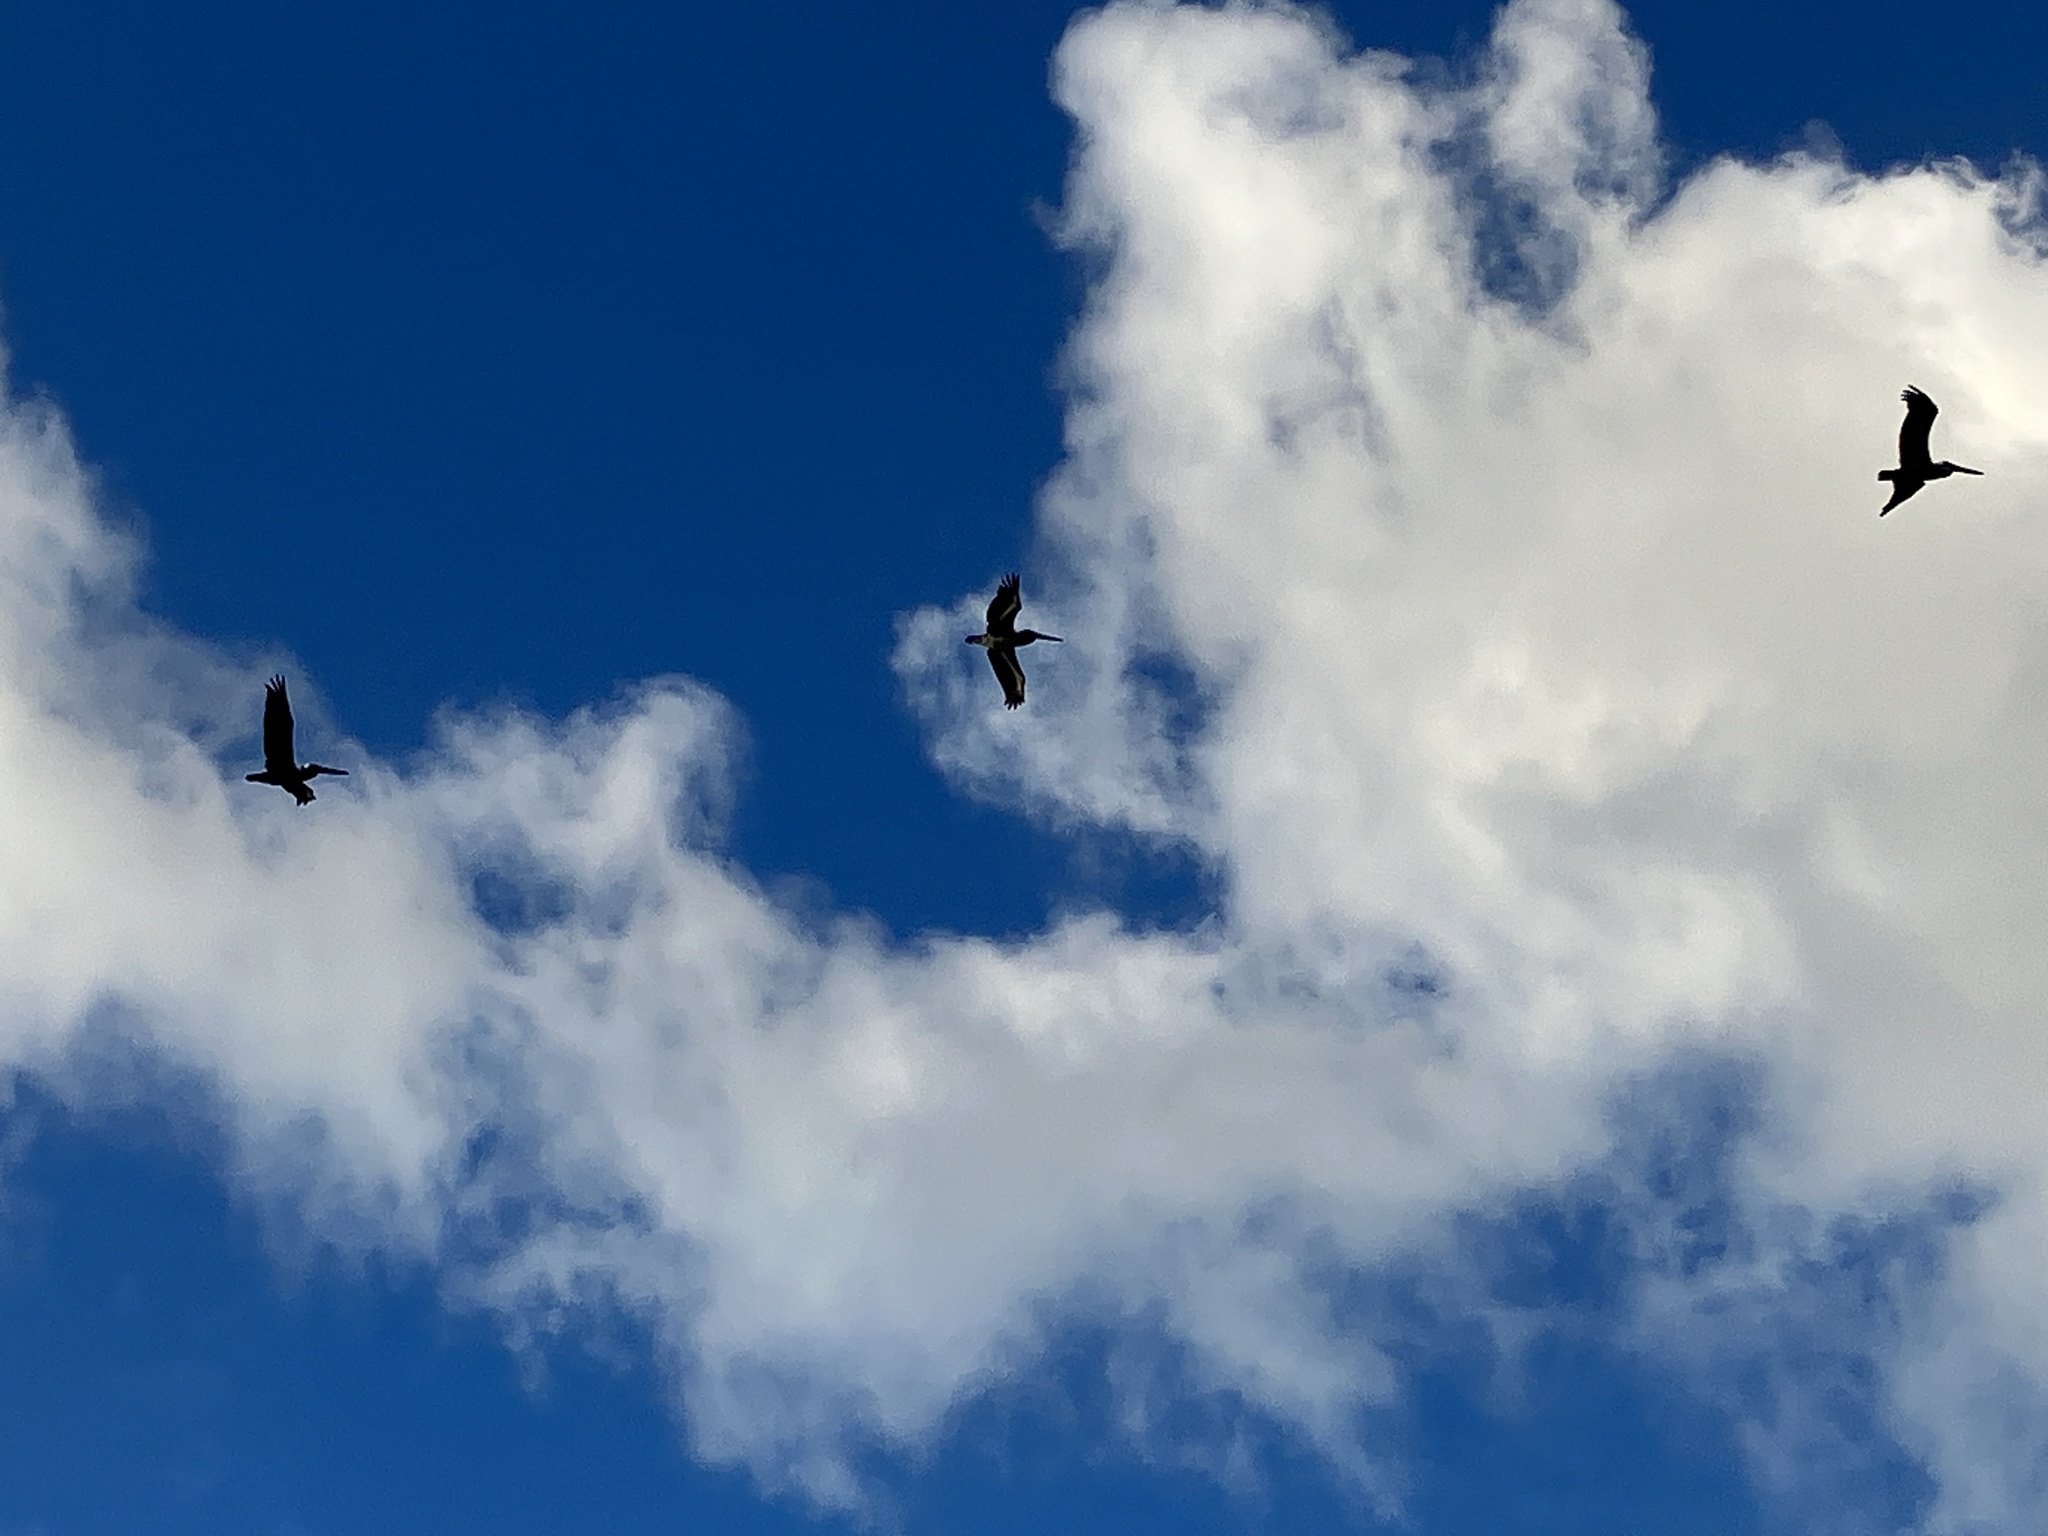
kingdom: Animalia
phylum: Chordata
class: Aves
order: Pelecaniformes
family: Pelecanidae
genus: Pelecanus
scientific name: Pelecanus occidentalis
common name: Brown pelican
